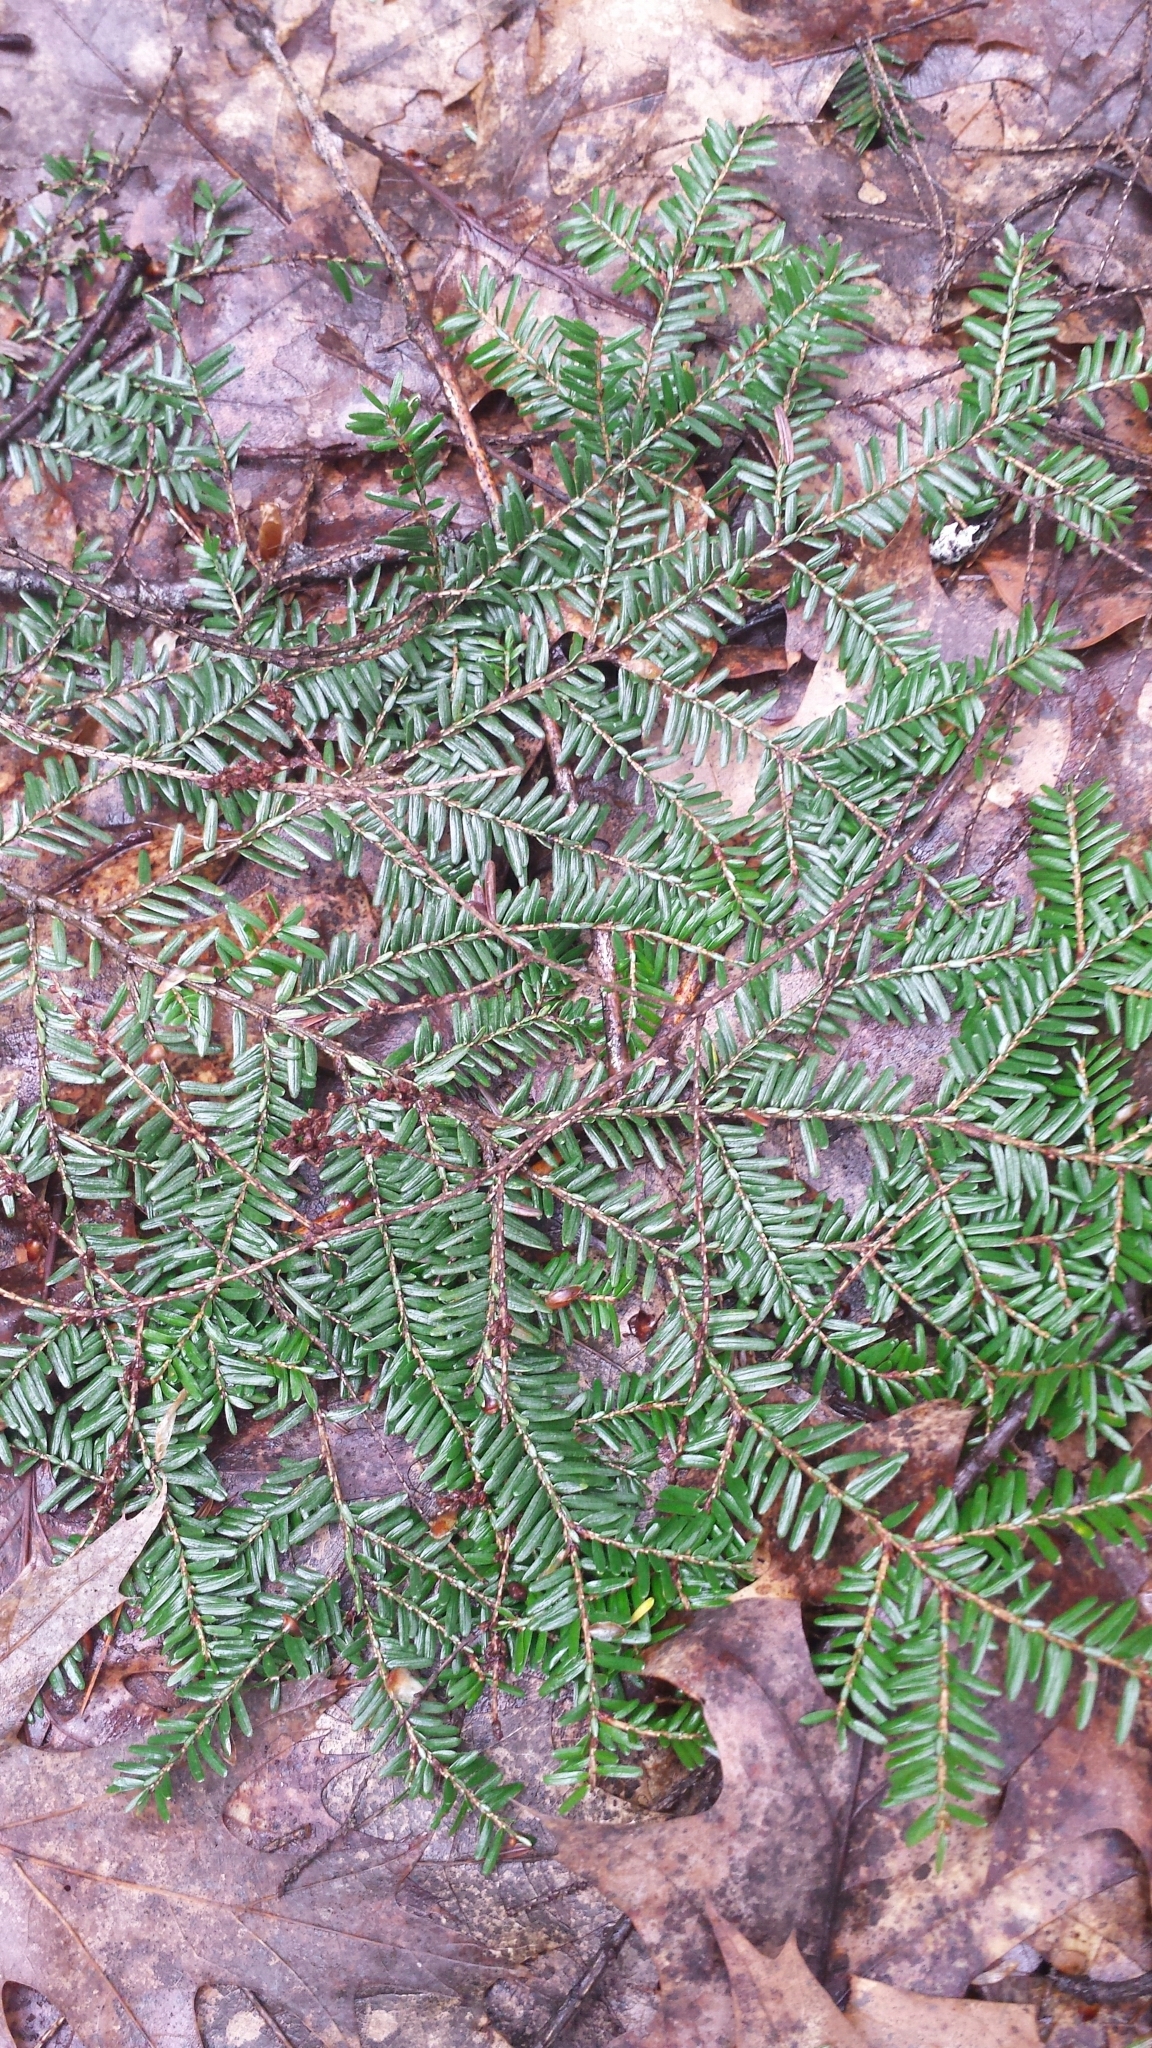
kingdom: Plantae
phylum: Tracheophyta
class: Pinopsida
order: Pinales
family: Pinaceae
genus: Tsuga
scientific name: Tsuga canadensis
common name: Eastern hemlock
